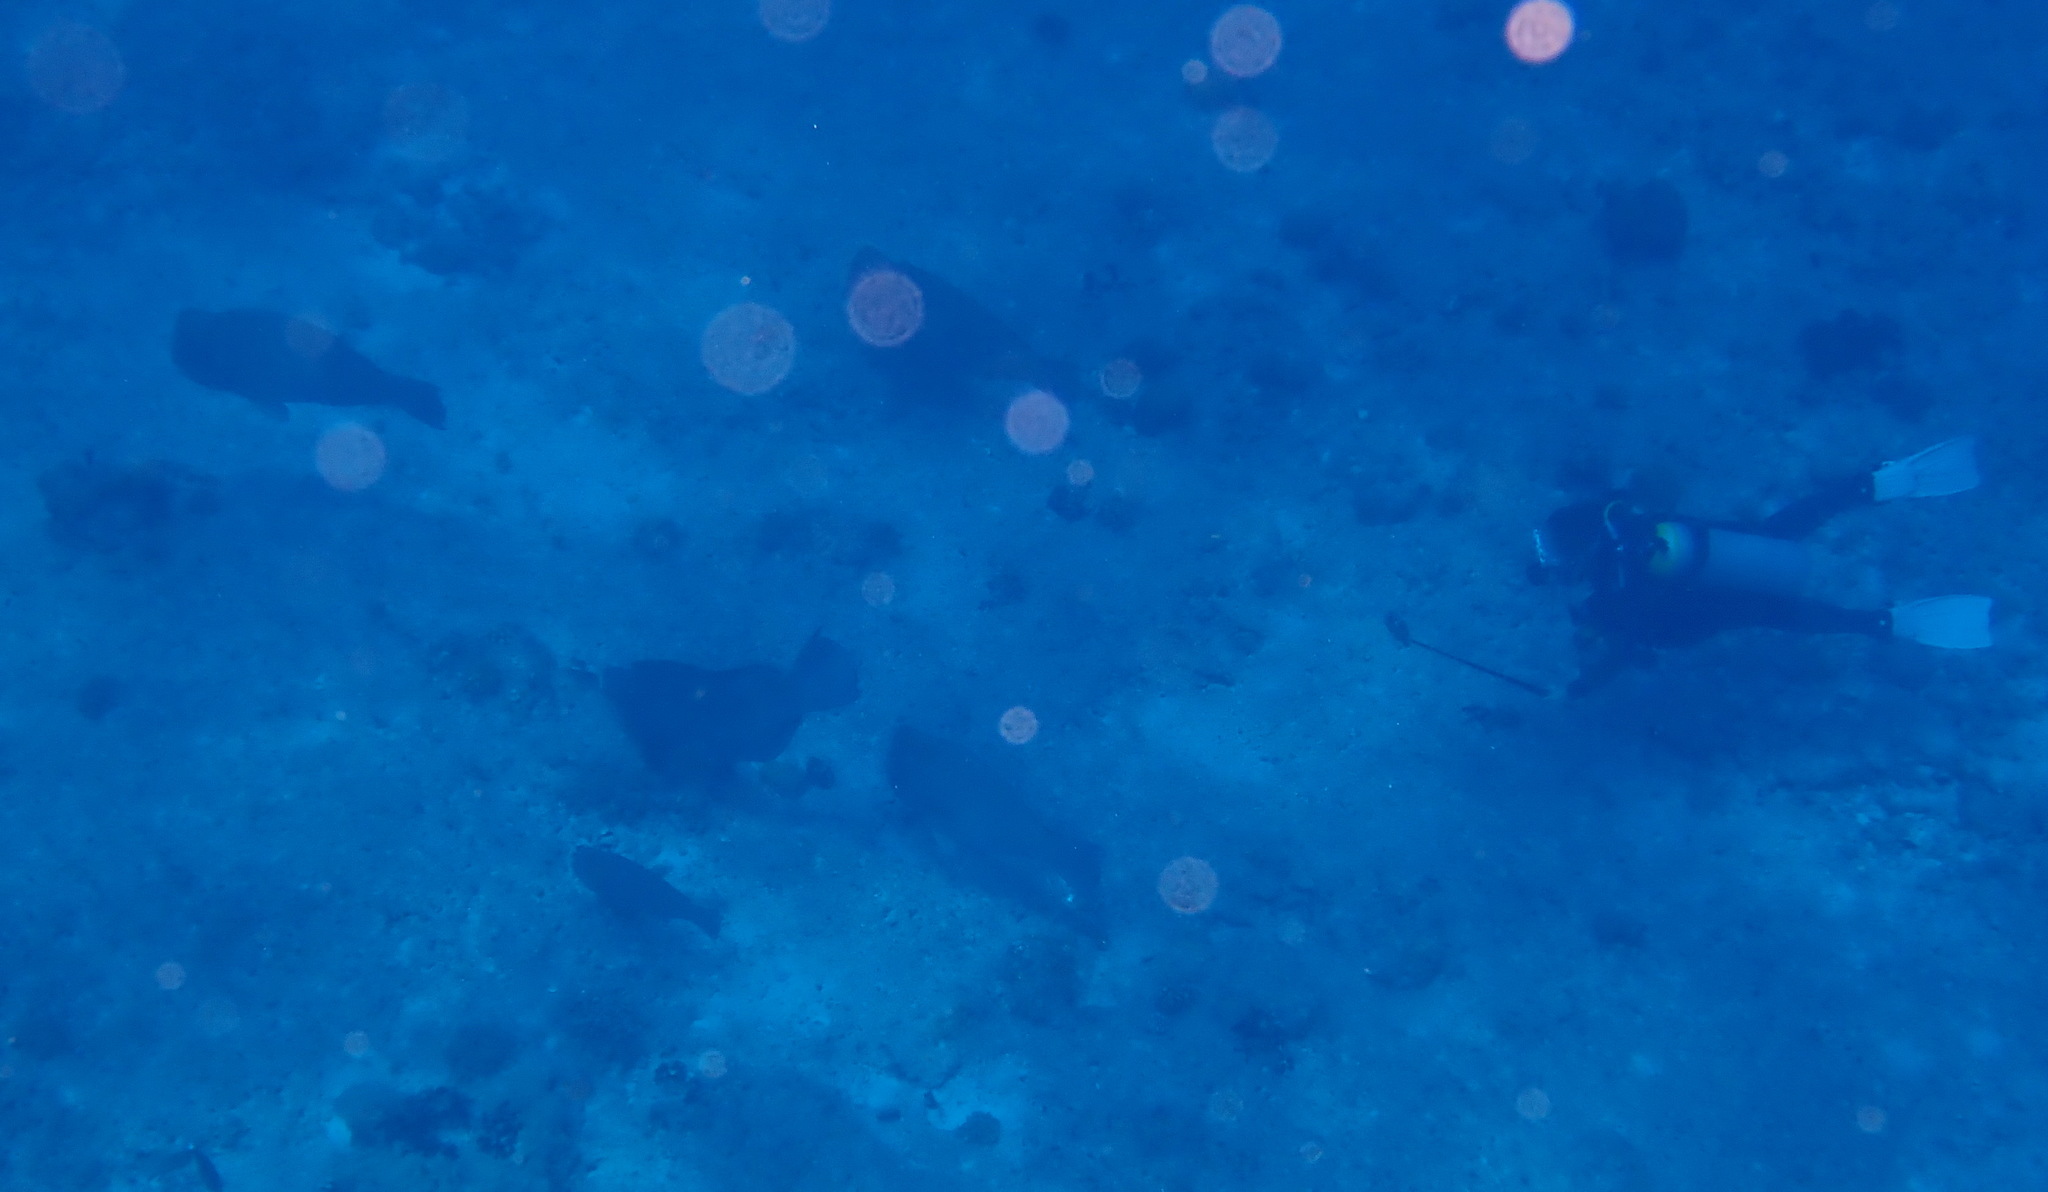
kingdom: Animalia
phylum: Chordata
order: Perciformes
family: Scaridae
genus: Bolbometopon
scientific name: Bolbometopon muricatum
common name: Humphead parrotfish
